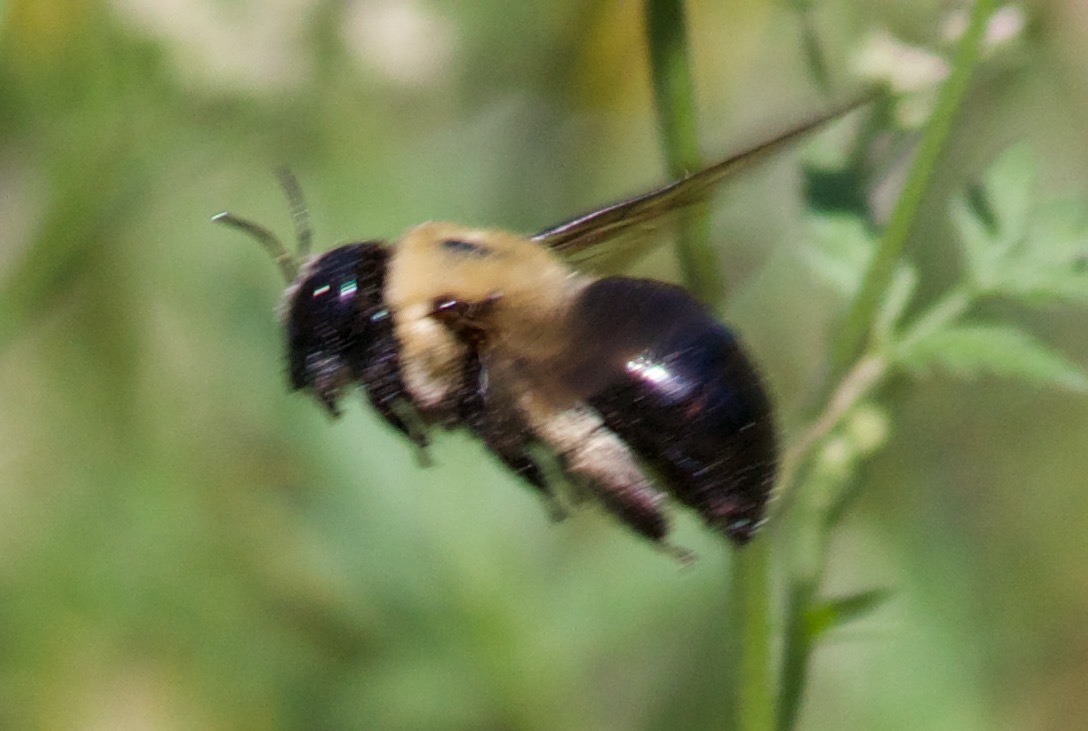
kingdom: Animalia
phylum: Arthropoda
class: Insecta
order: Hymenoptera
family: Apidae
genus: Xylocopa
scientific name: Xylocopa virginica
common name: Carpenter bee
